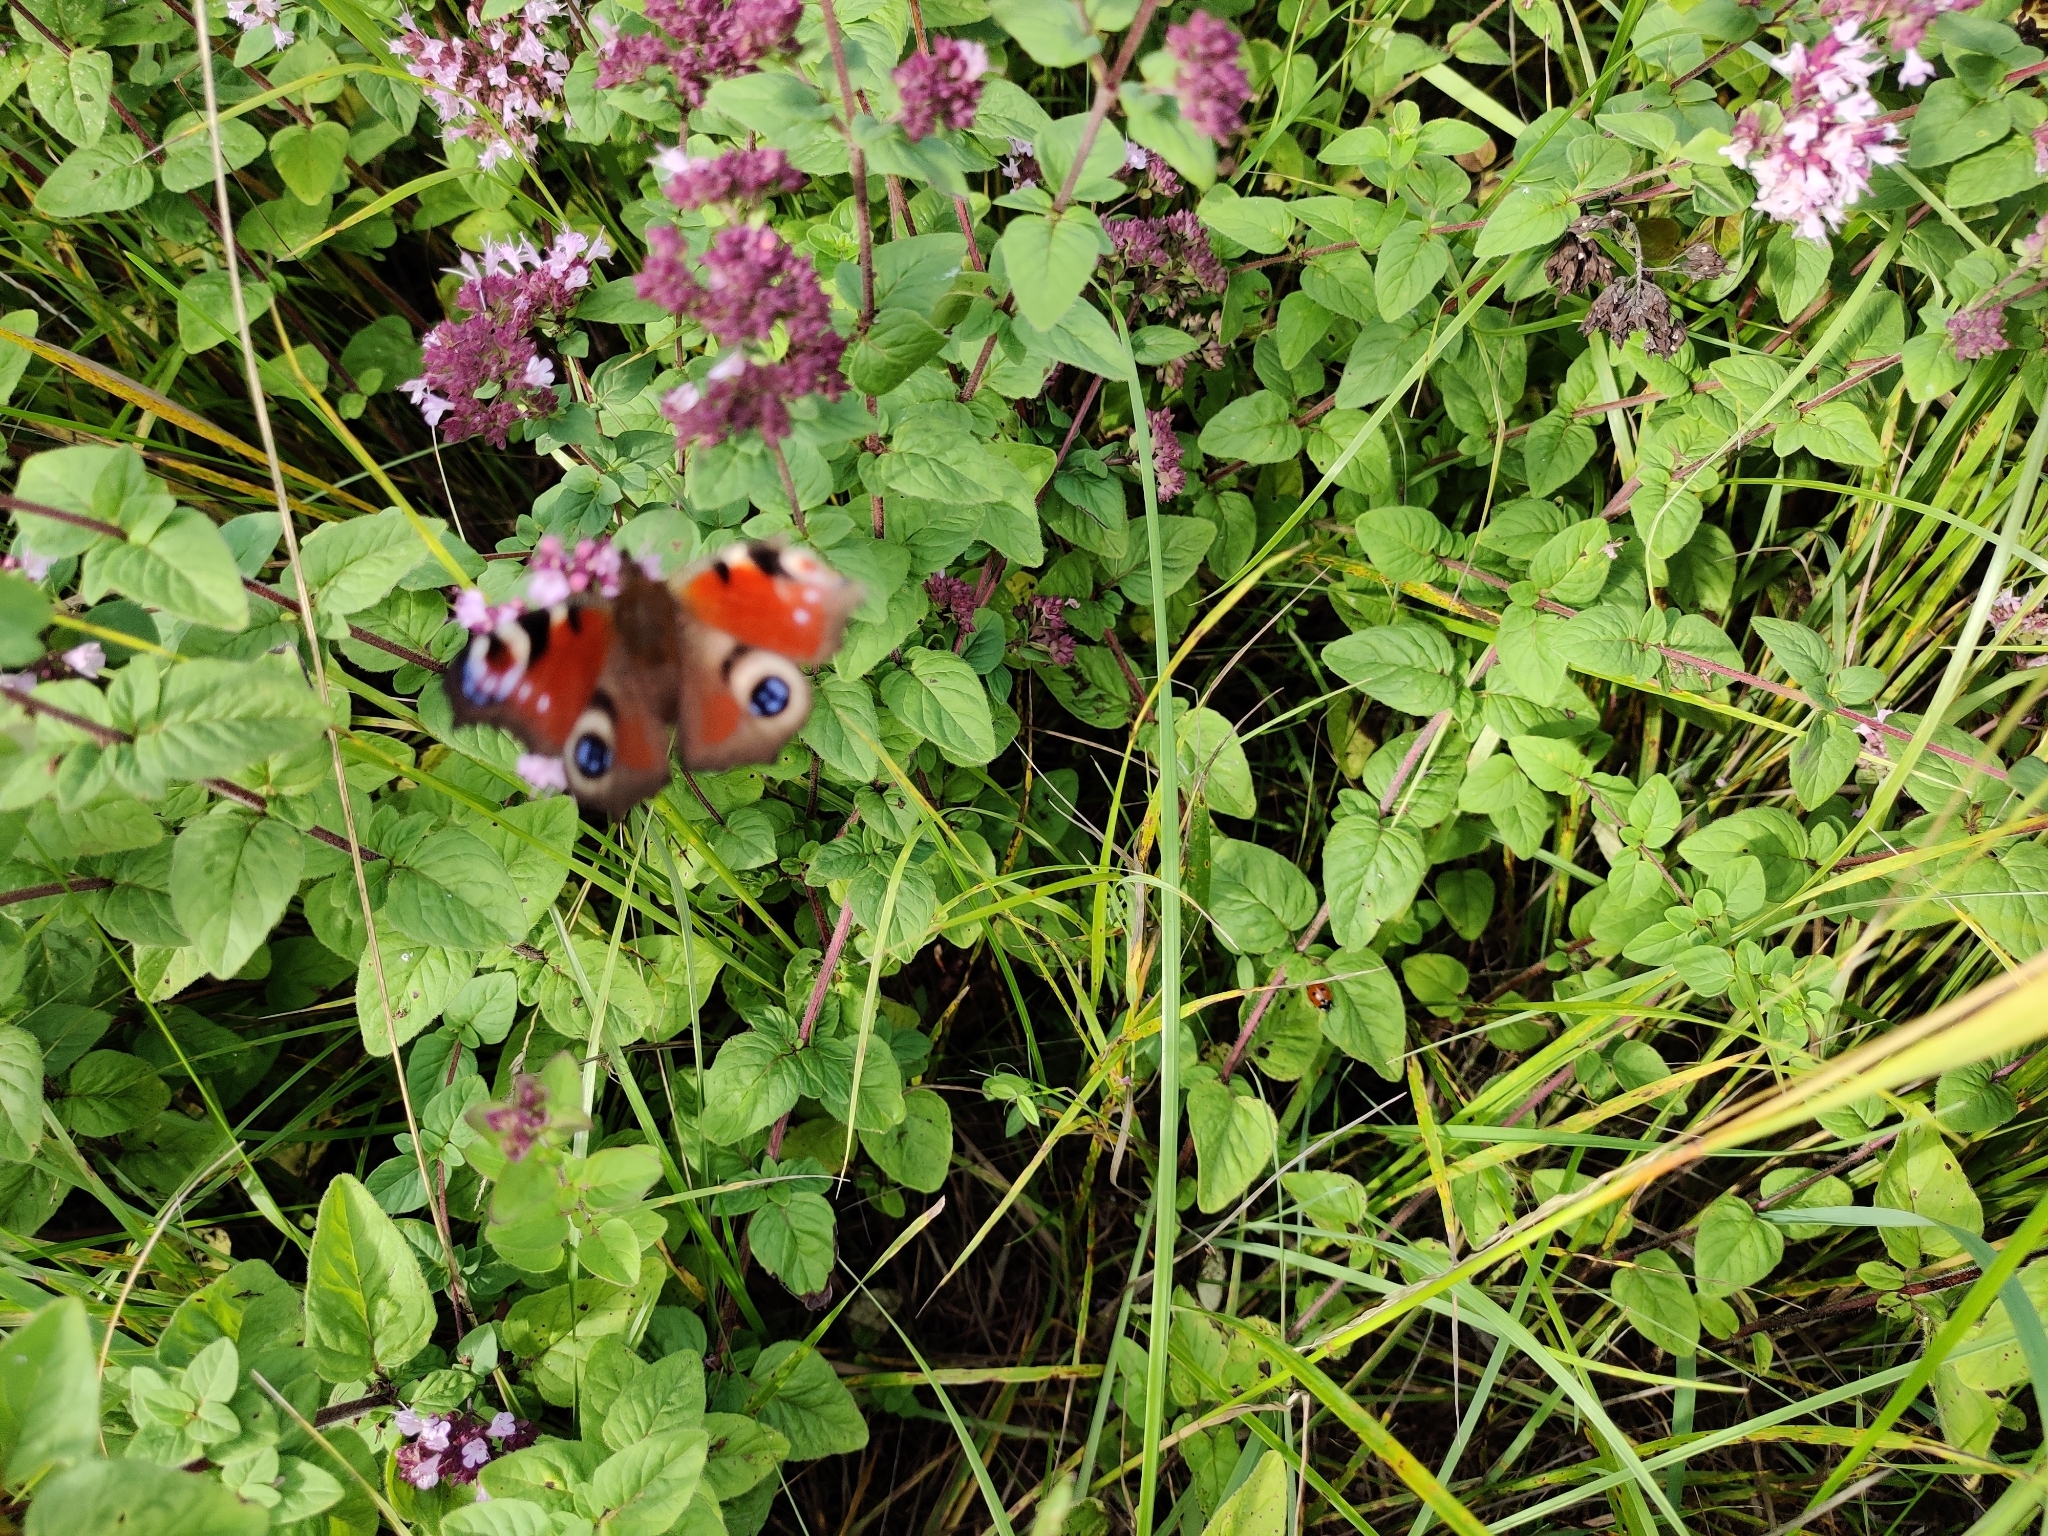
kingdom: Animalia
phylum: Arthropoda
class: Insecta
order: Lepidoptera
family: Nymphalidae
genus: Aglais
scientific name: Aglais io
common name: Peacock
